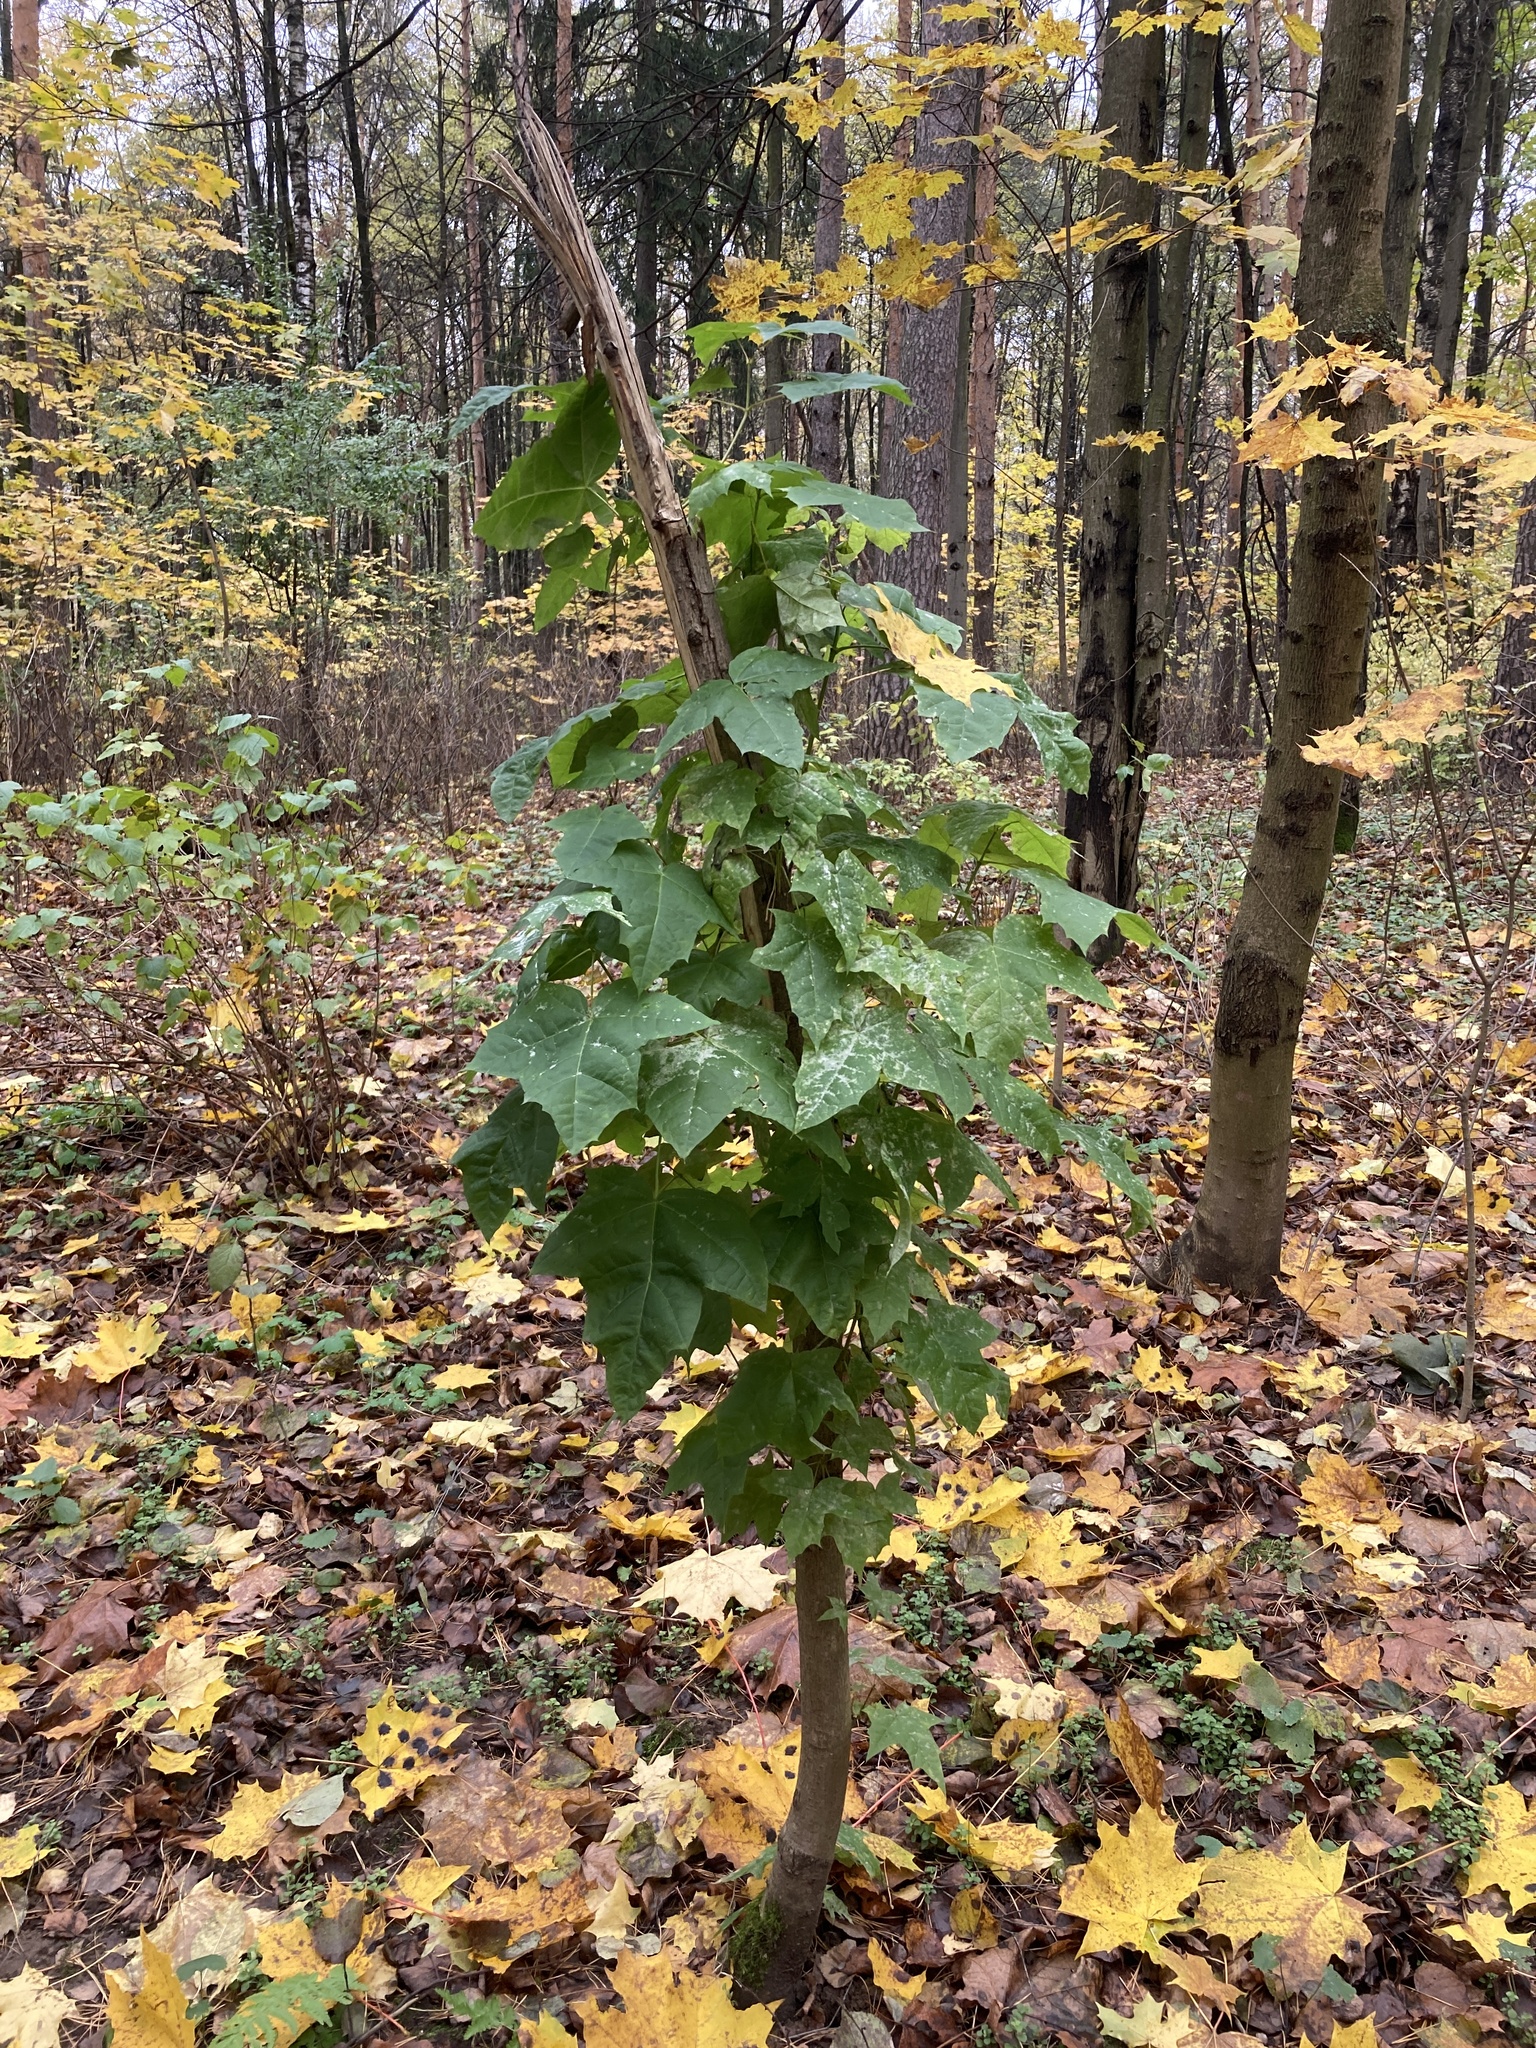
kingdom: Plantae
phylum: Tracheophyta
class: Magnoliopsida
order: Sapindales
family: Sapindaceae
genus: Acer
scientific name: Acer platanoides
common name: Norway maple
